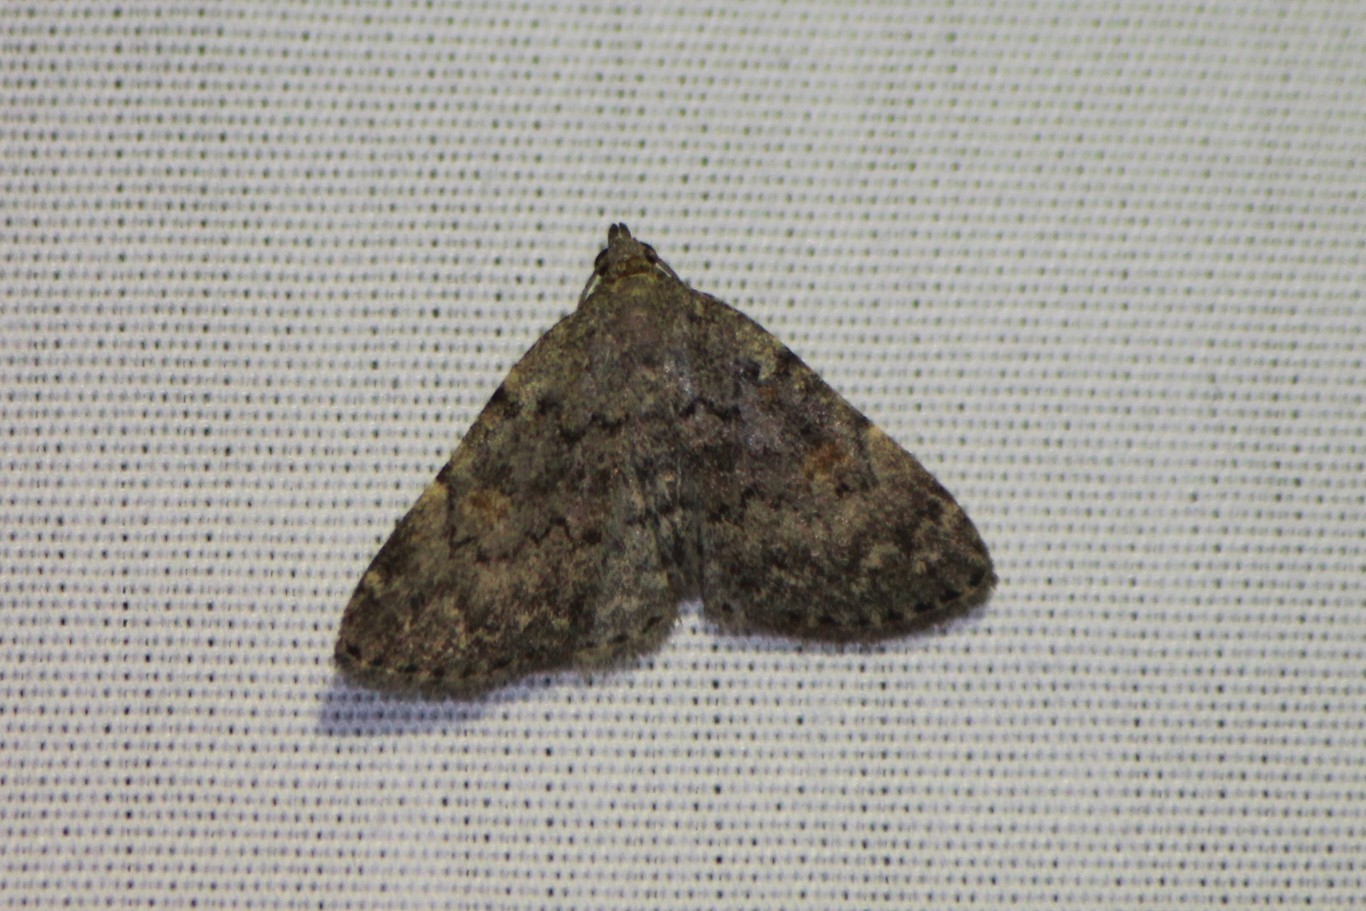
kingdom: Animalia
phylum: Arthropoda
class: Insecta
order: Lepidoptera
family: Erebidae
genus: Idia
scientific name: Idia aemula
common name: Common idia moth
